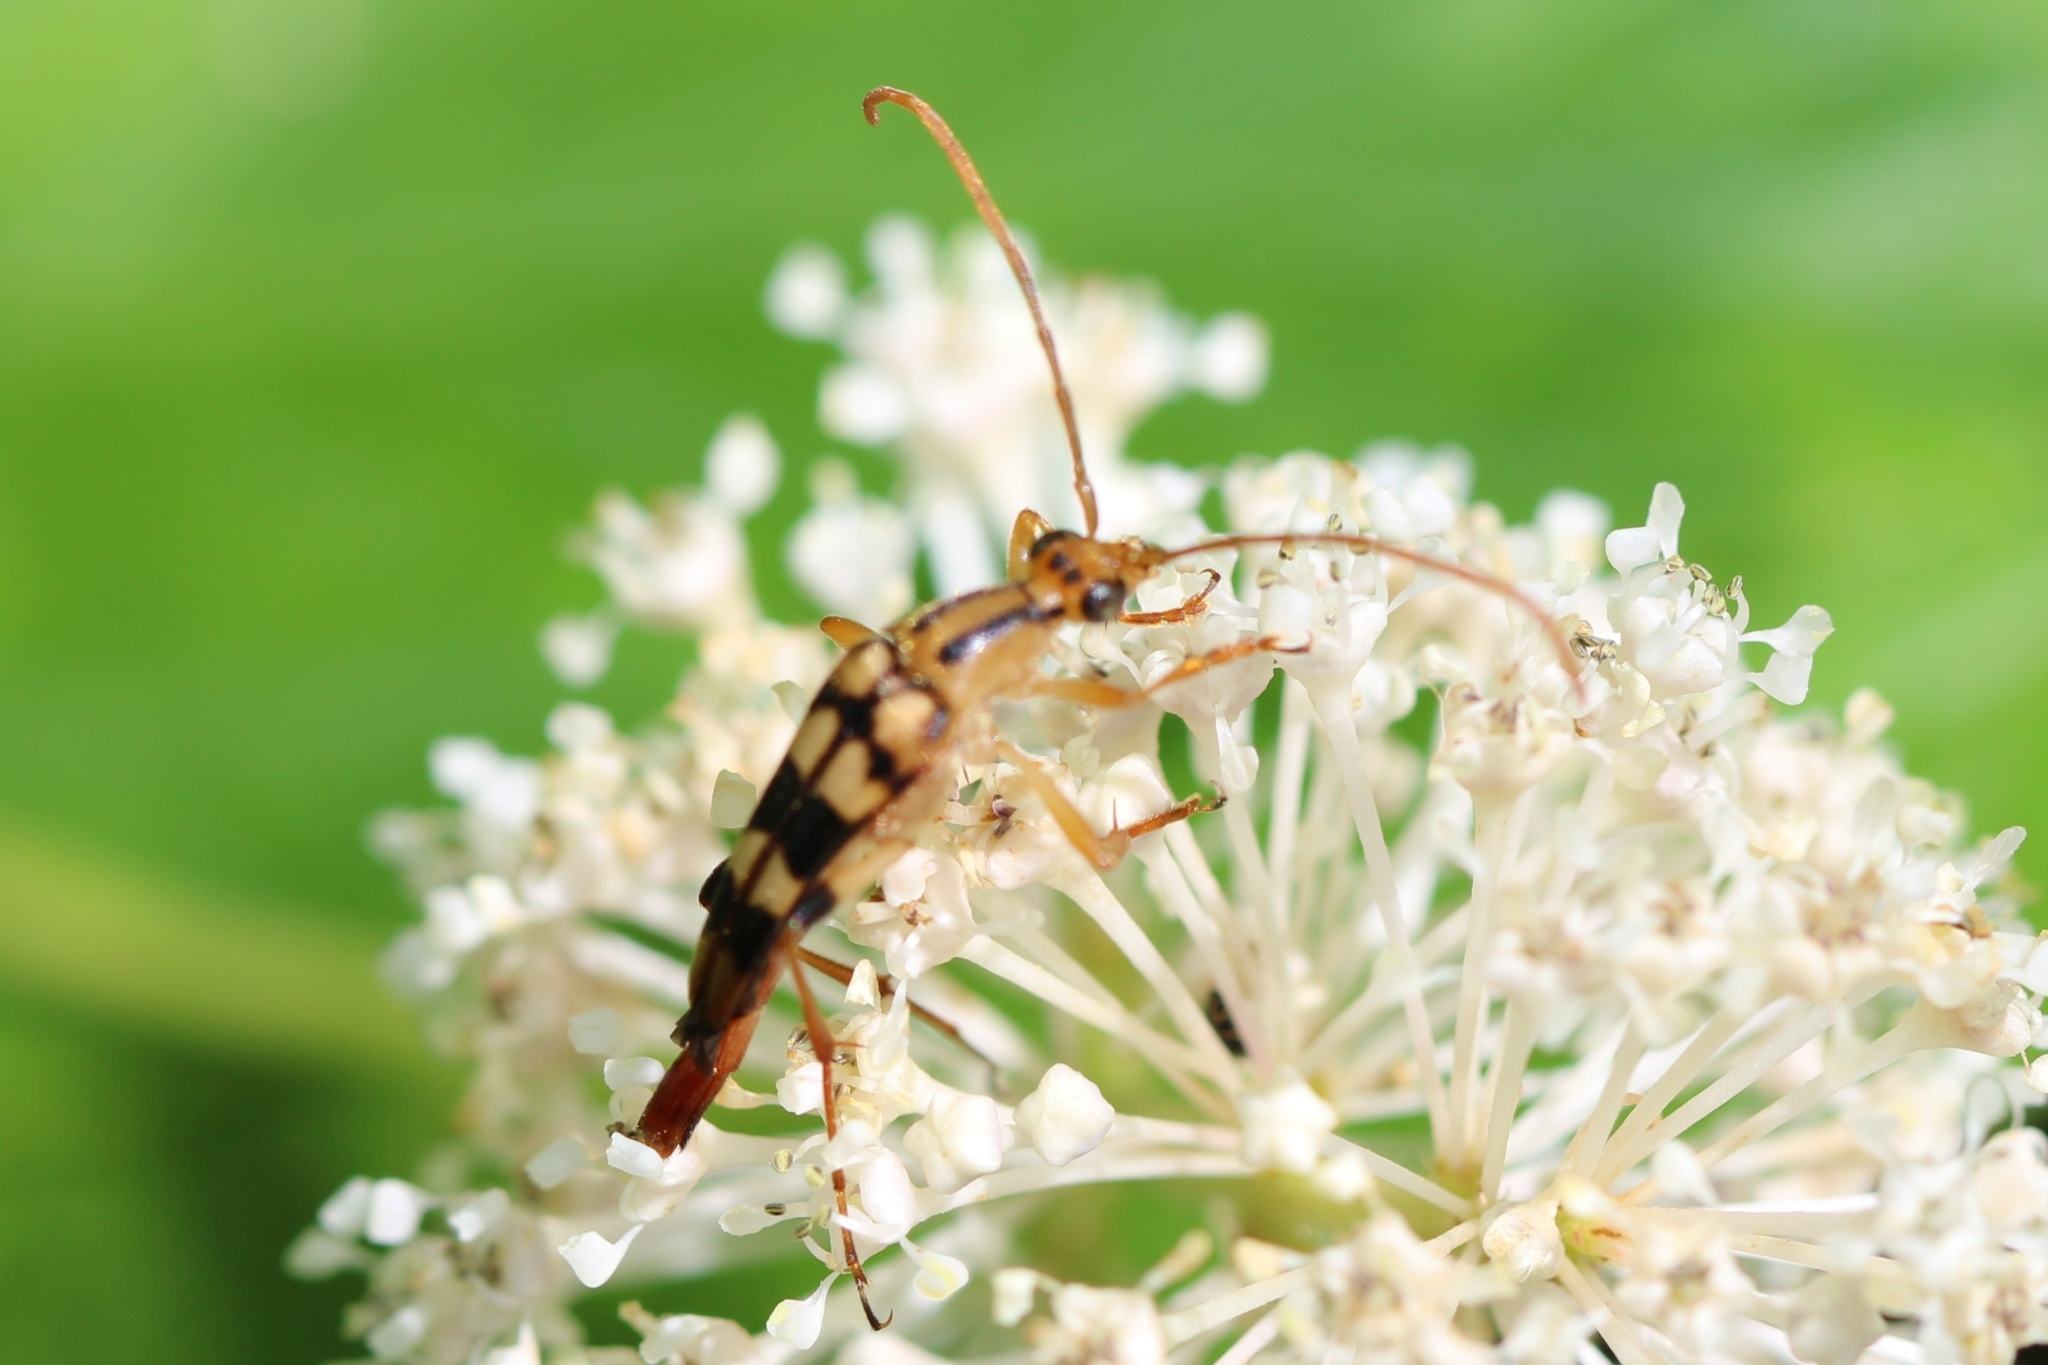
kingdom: Animalia
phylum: Arthropoda
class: Insecta
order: Coleoptera
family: Cerambycidae
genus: Strangalia
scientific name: Strangalia luteicornis
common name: Yellow-horned flower longhorn beetle
